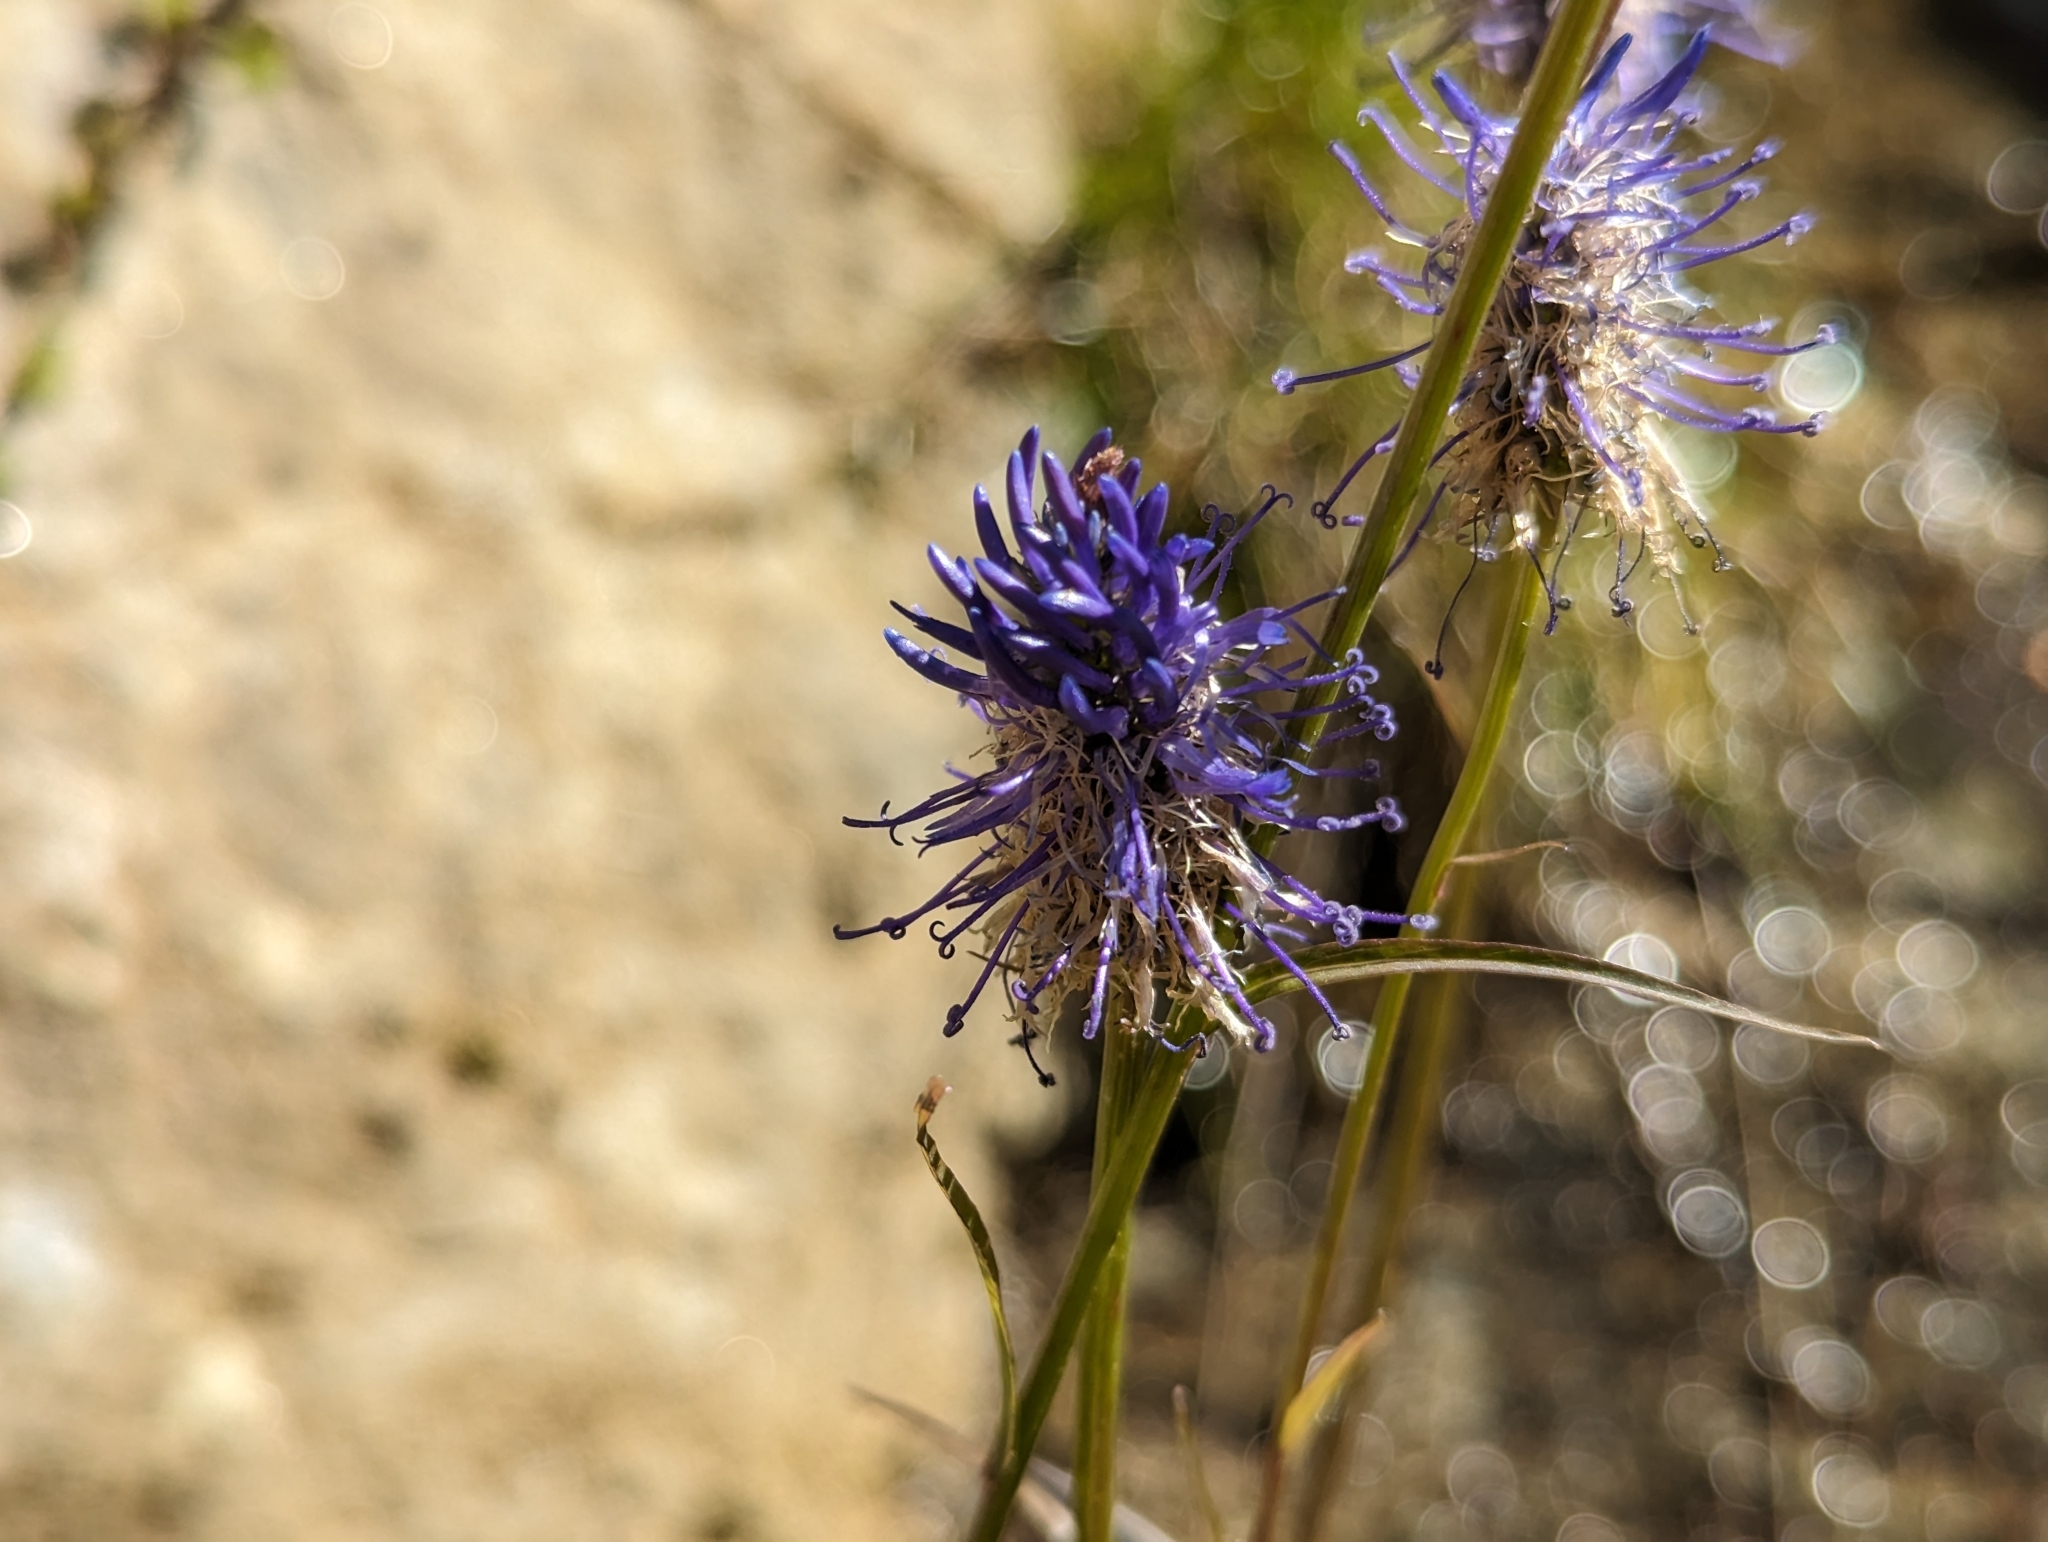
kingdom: Plantae
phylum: Tracheophyta
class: Magnoliopsida
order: Asterales
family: Campanulaceae
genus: Phyteuma
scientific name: Phyteuma persicifolium
